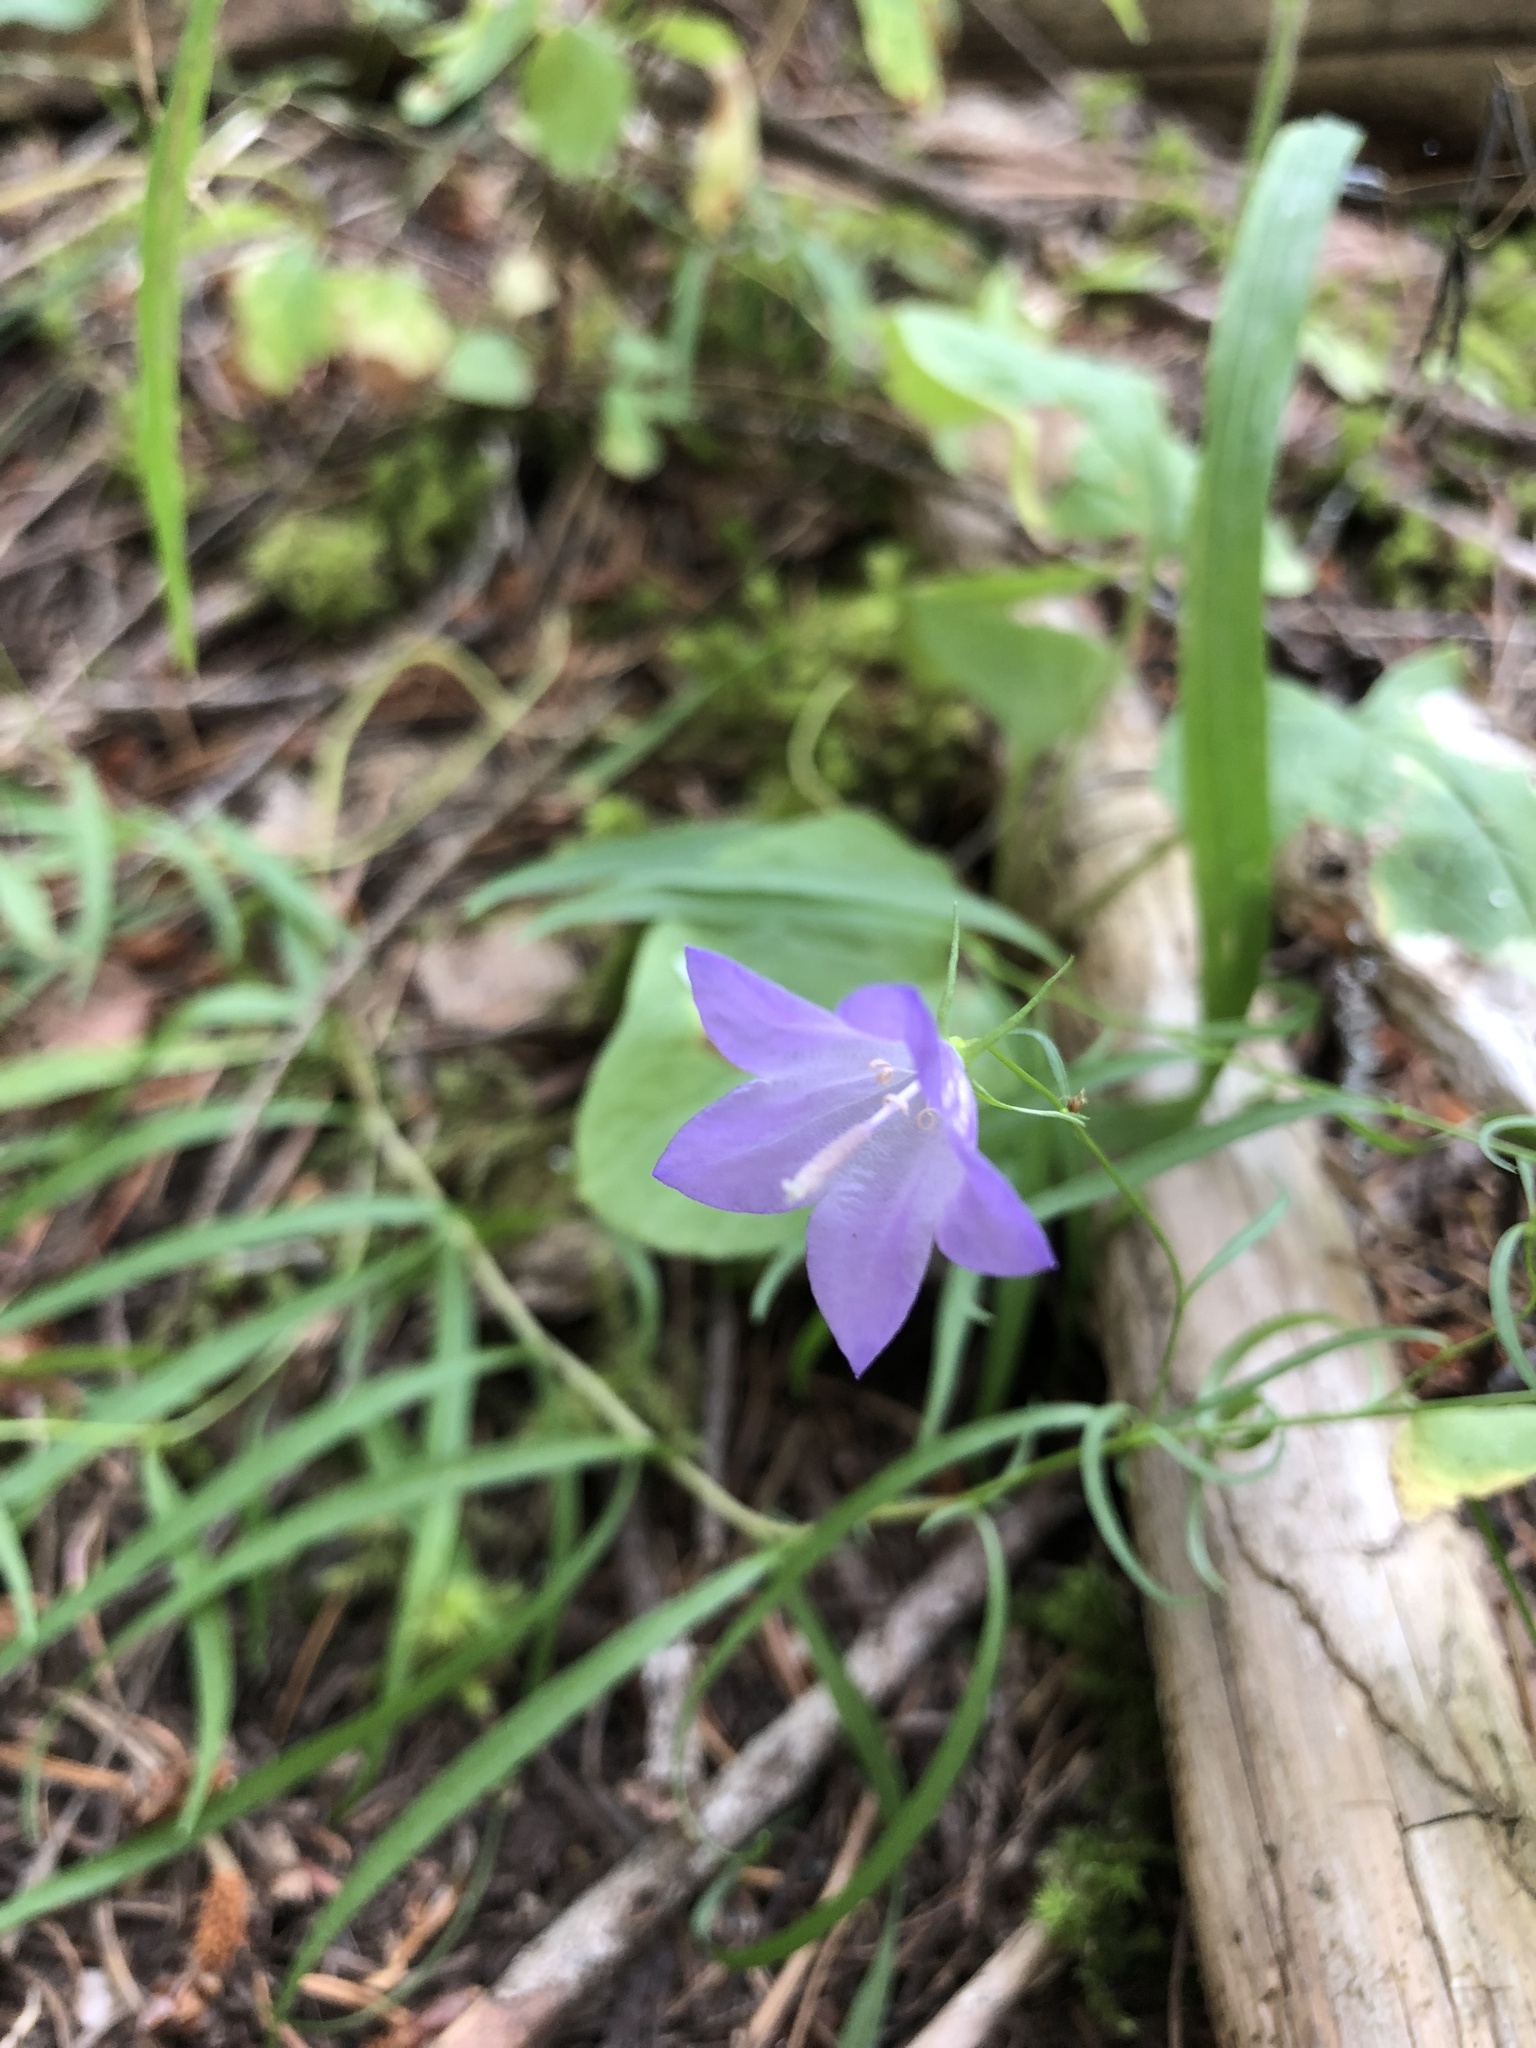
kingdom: Plantae
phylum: Tracheophyta
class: Magnoliopsida
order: Asterales
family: Campanulaceae
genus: Campanula
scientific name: Campanula petiolata
